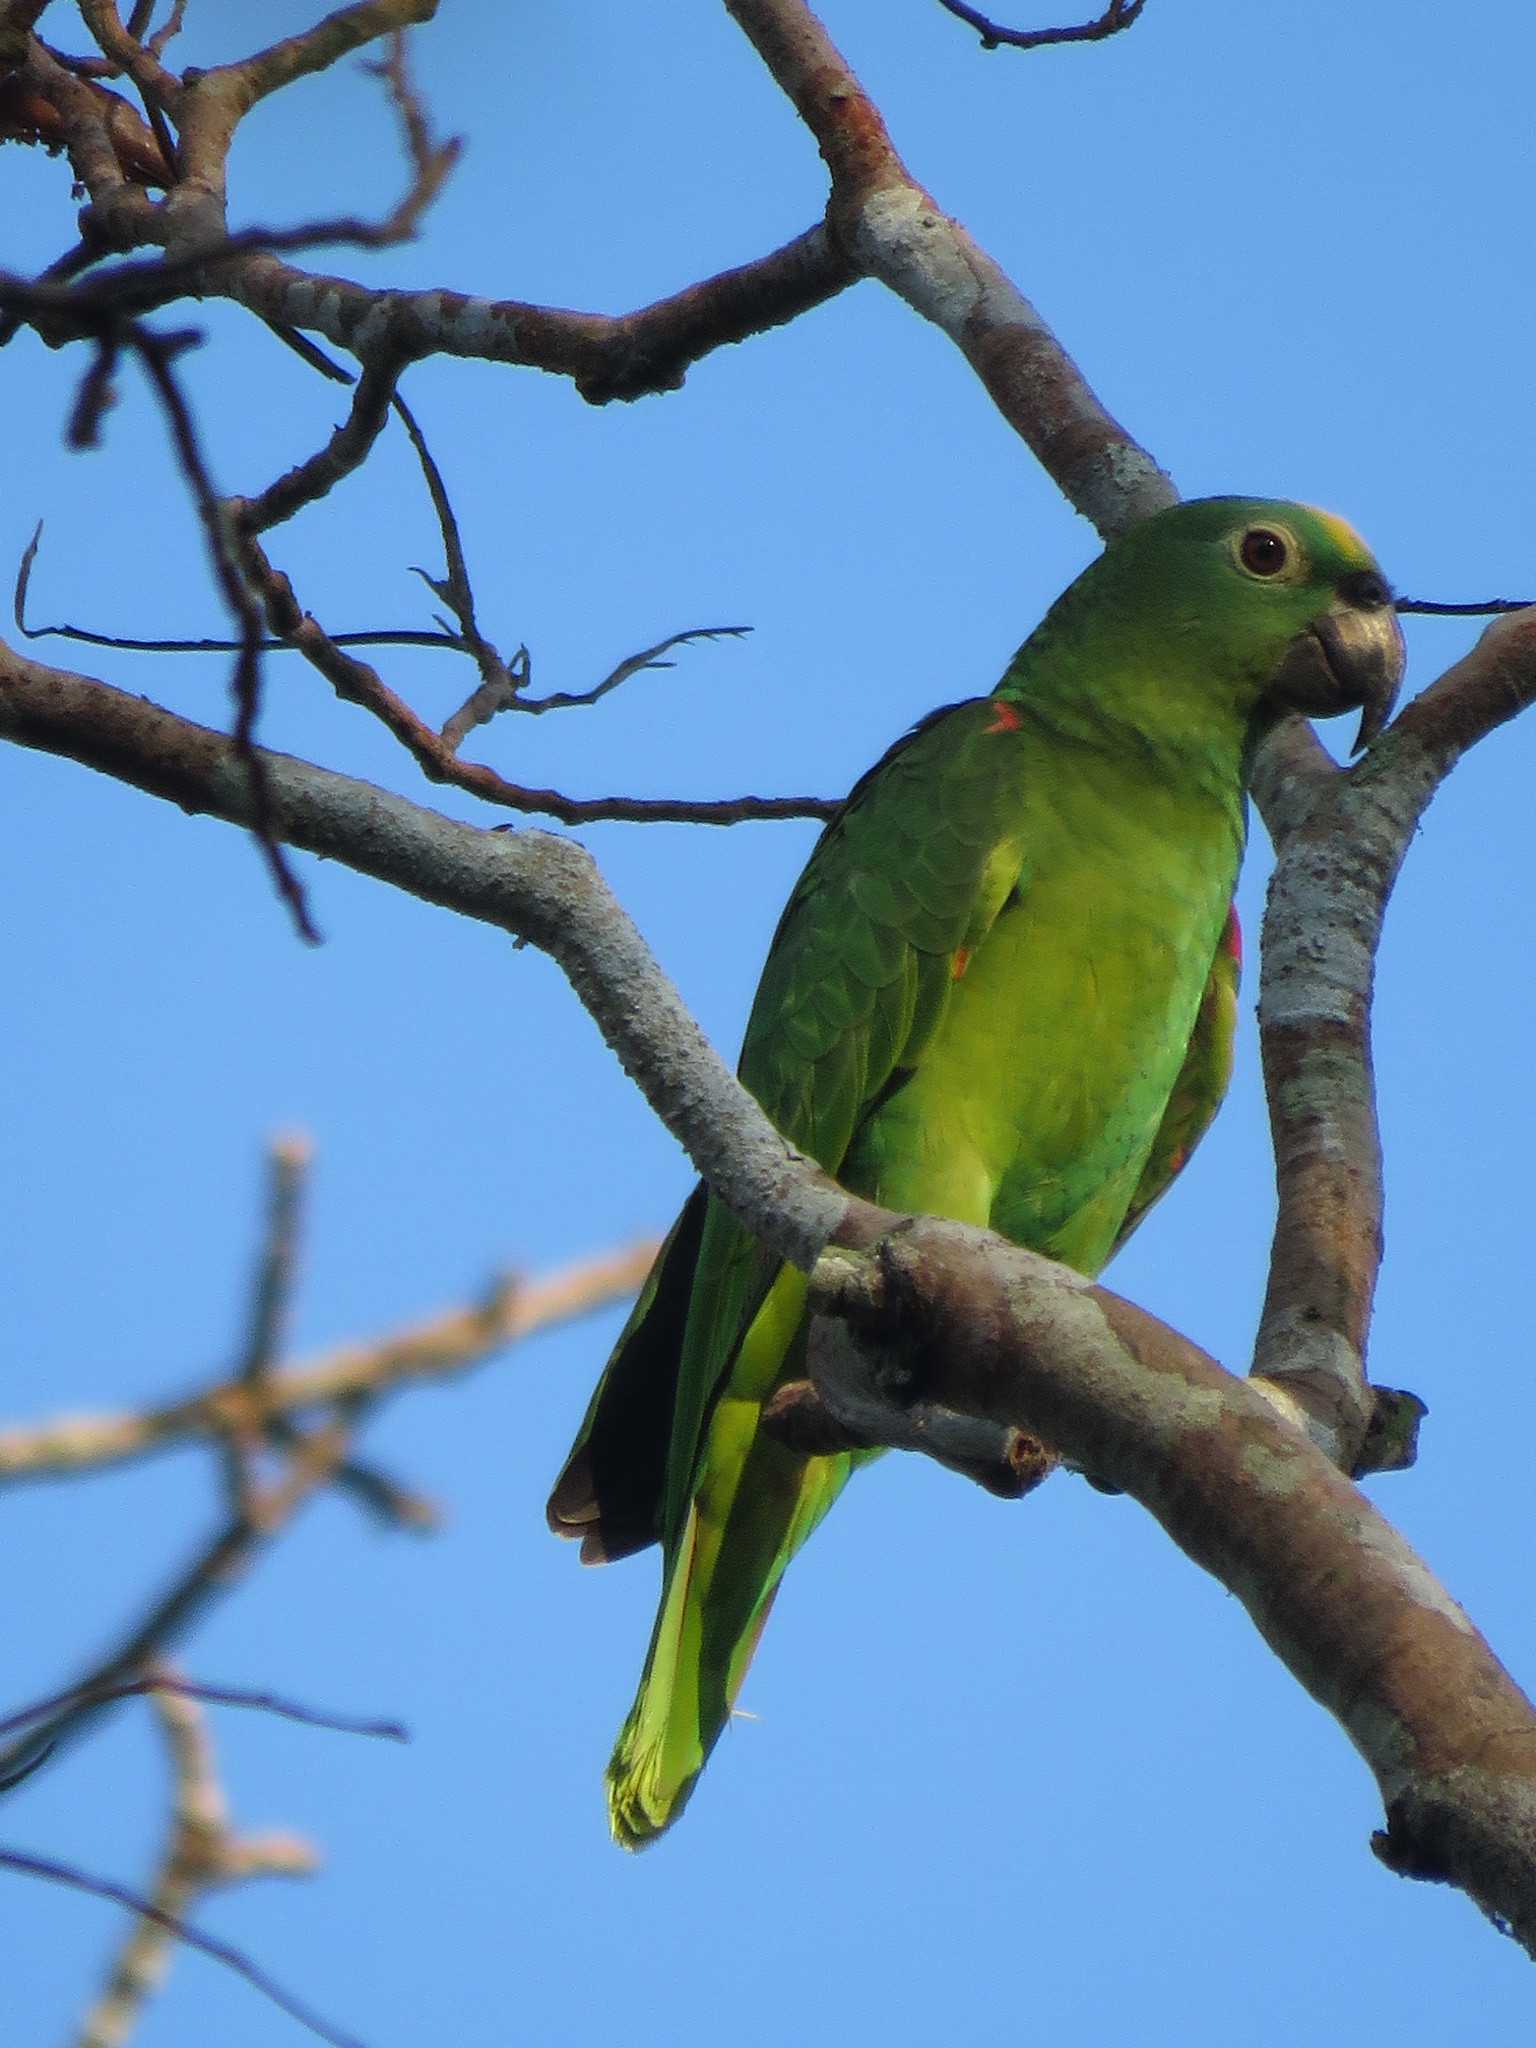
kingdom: Animalia
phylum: Chordata
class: Aves
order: Psittaciformes
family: Psittacidae
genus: Amazona
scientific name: Amazona ochrocephala
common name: Yellow-crowned amazon
